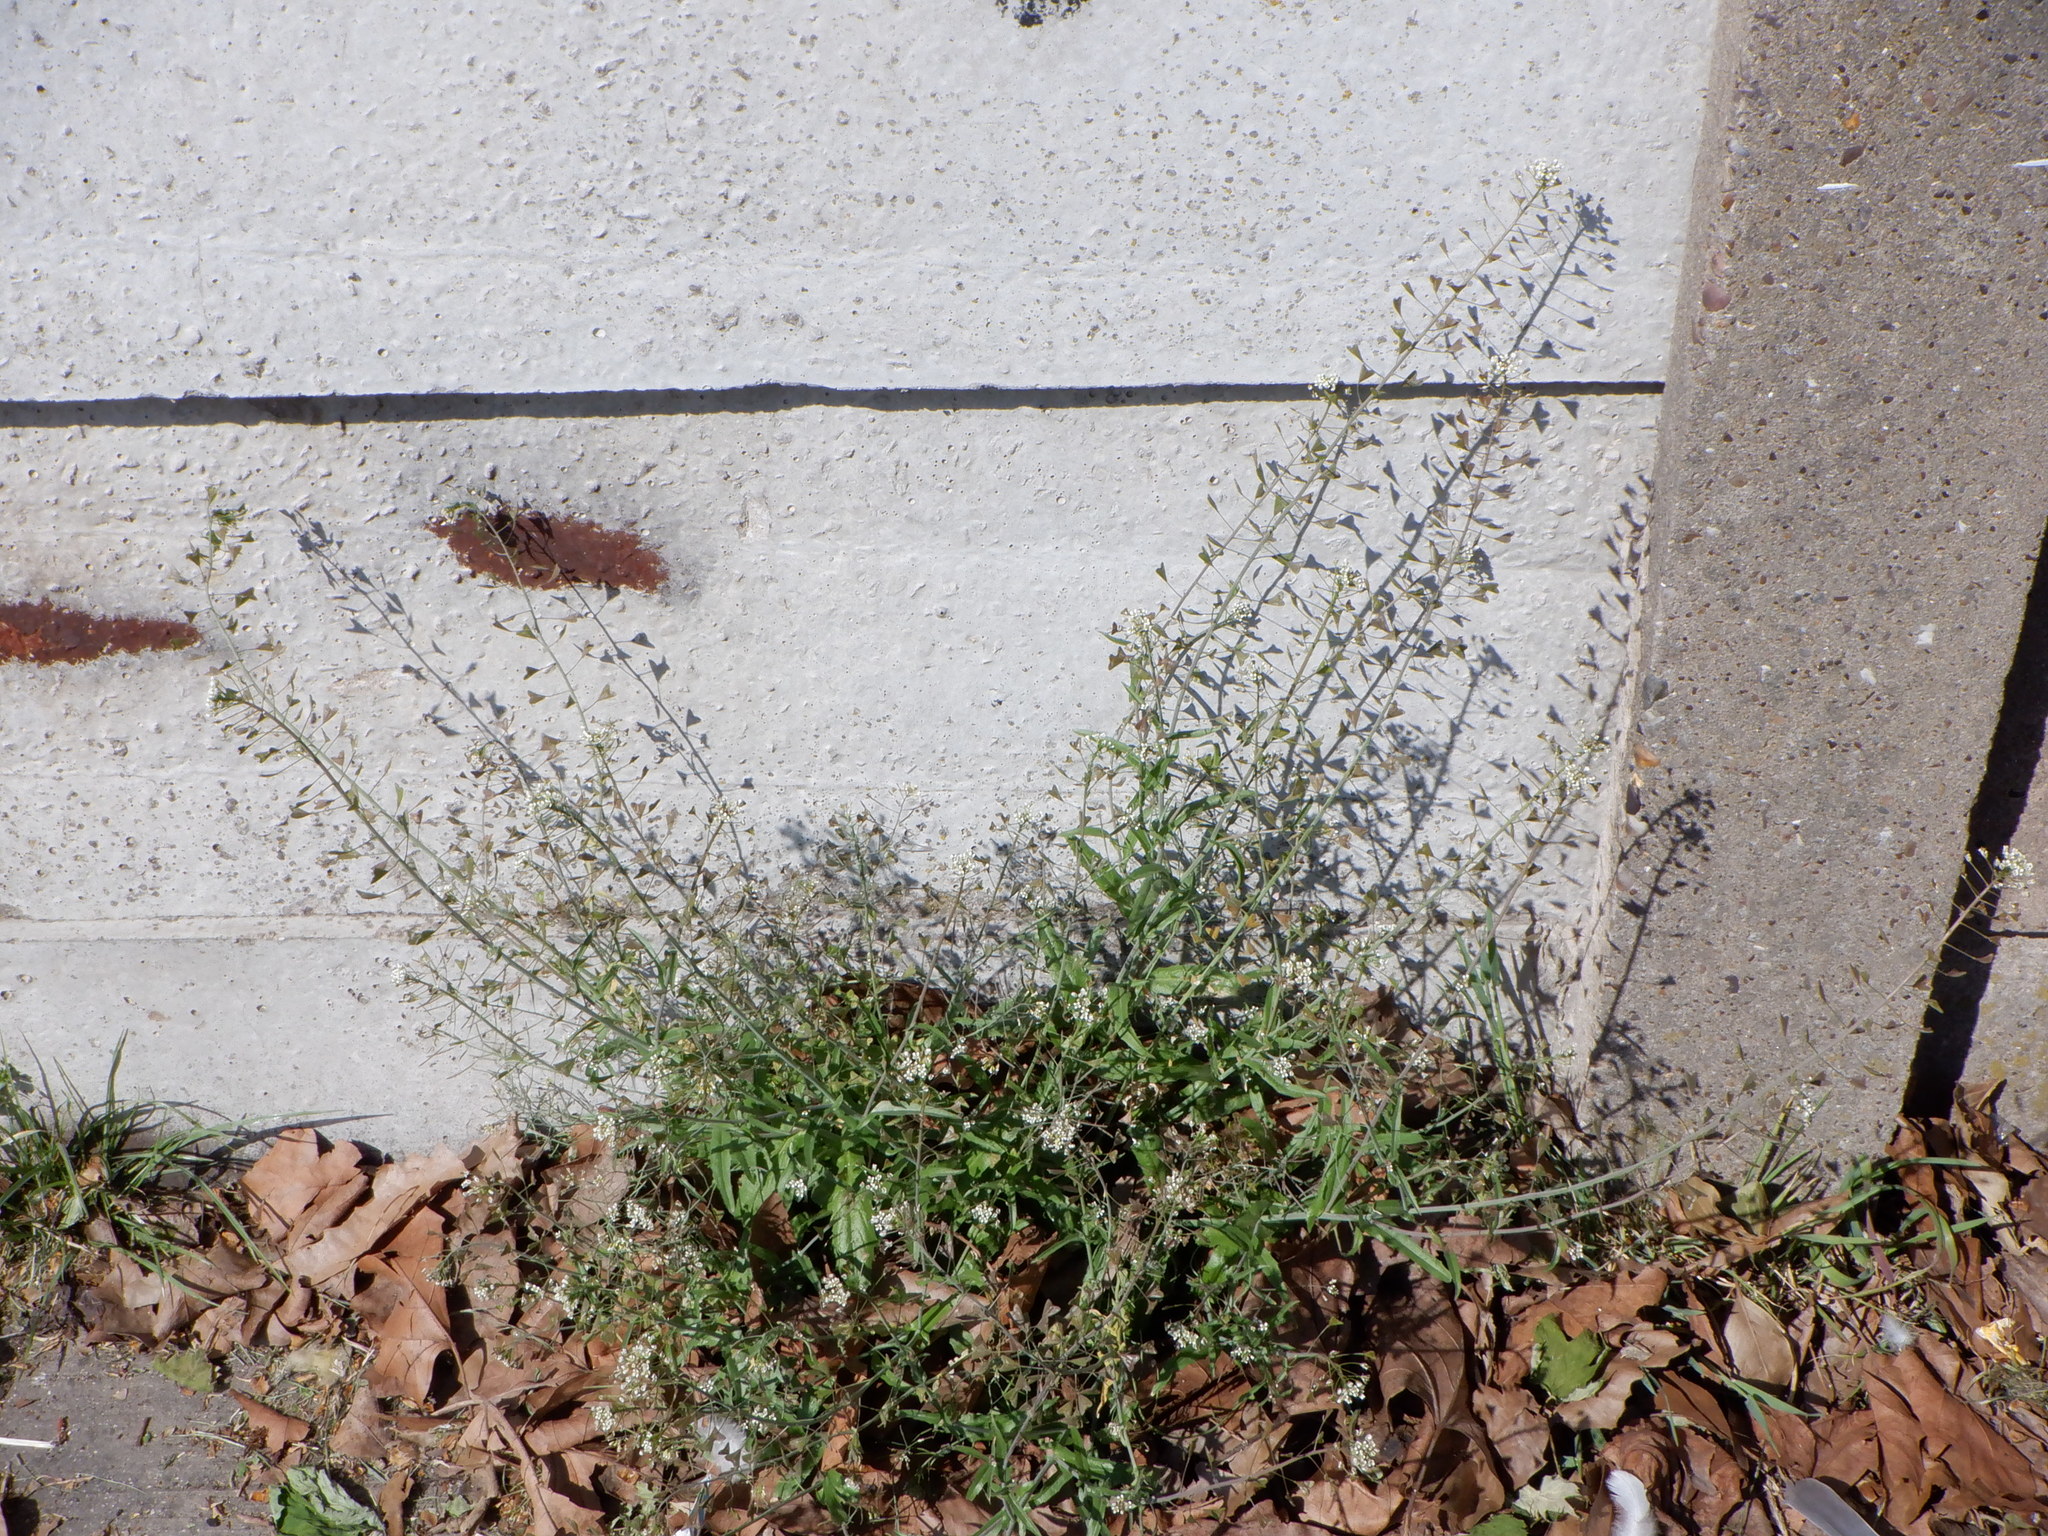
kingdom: Plantae
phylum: Tracheophyta
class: Magnoliopsida
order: Brassicales
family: Brassicaceae
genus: Capsella
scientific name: Capsella bursa-pastoris
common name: Shepherd's purse
